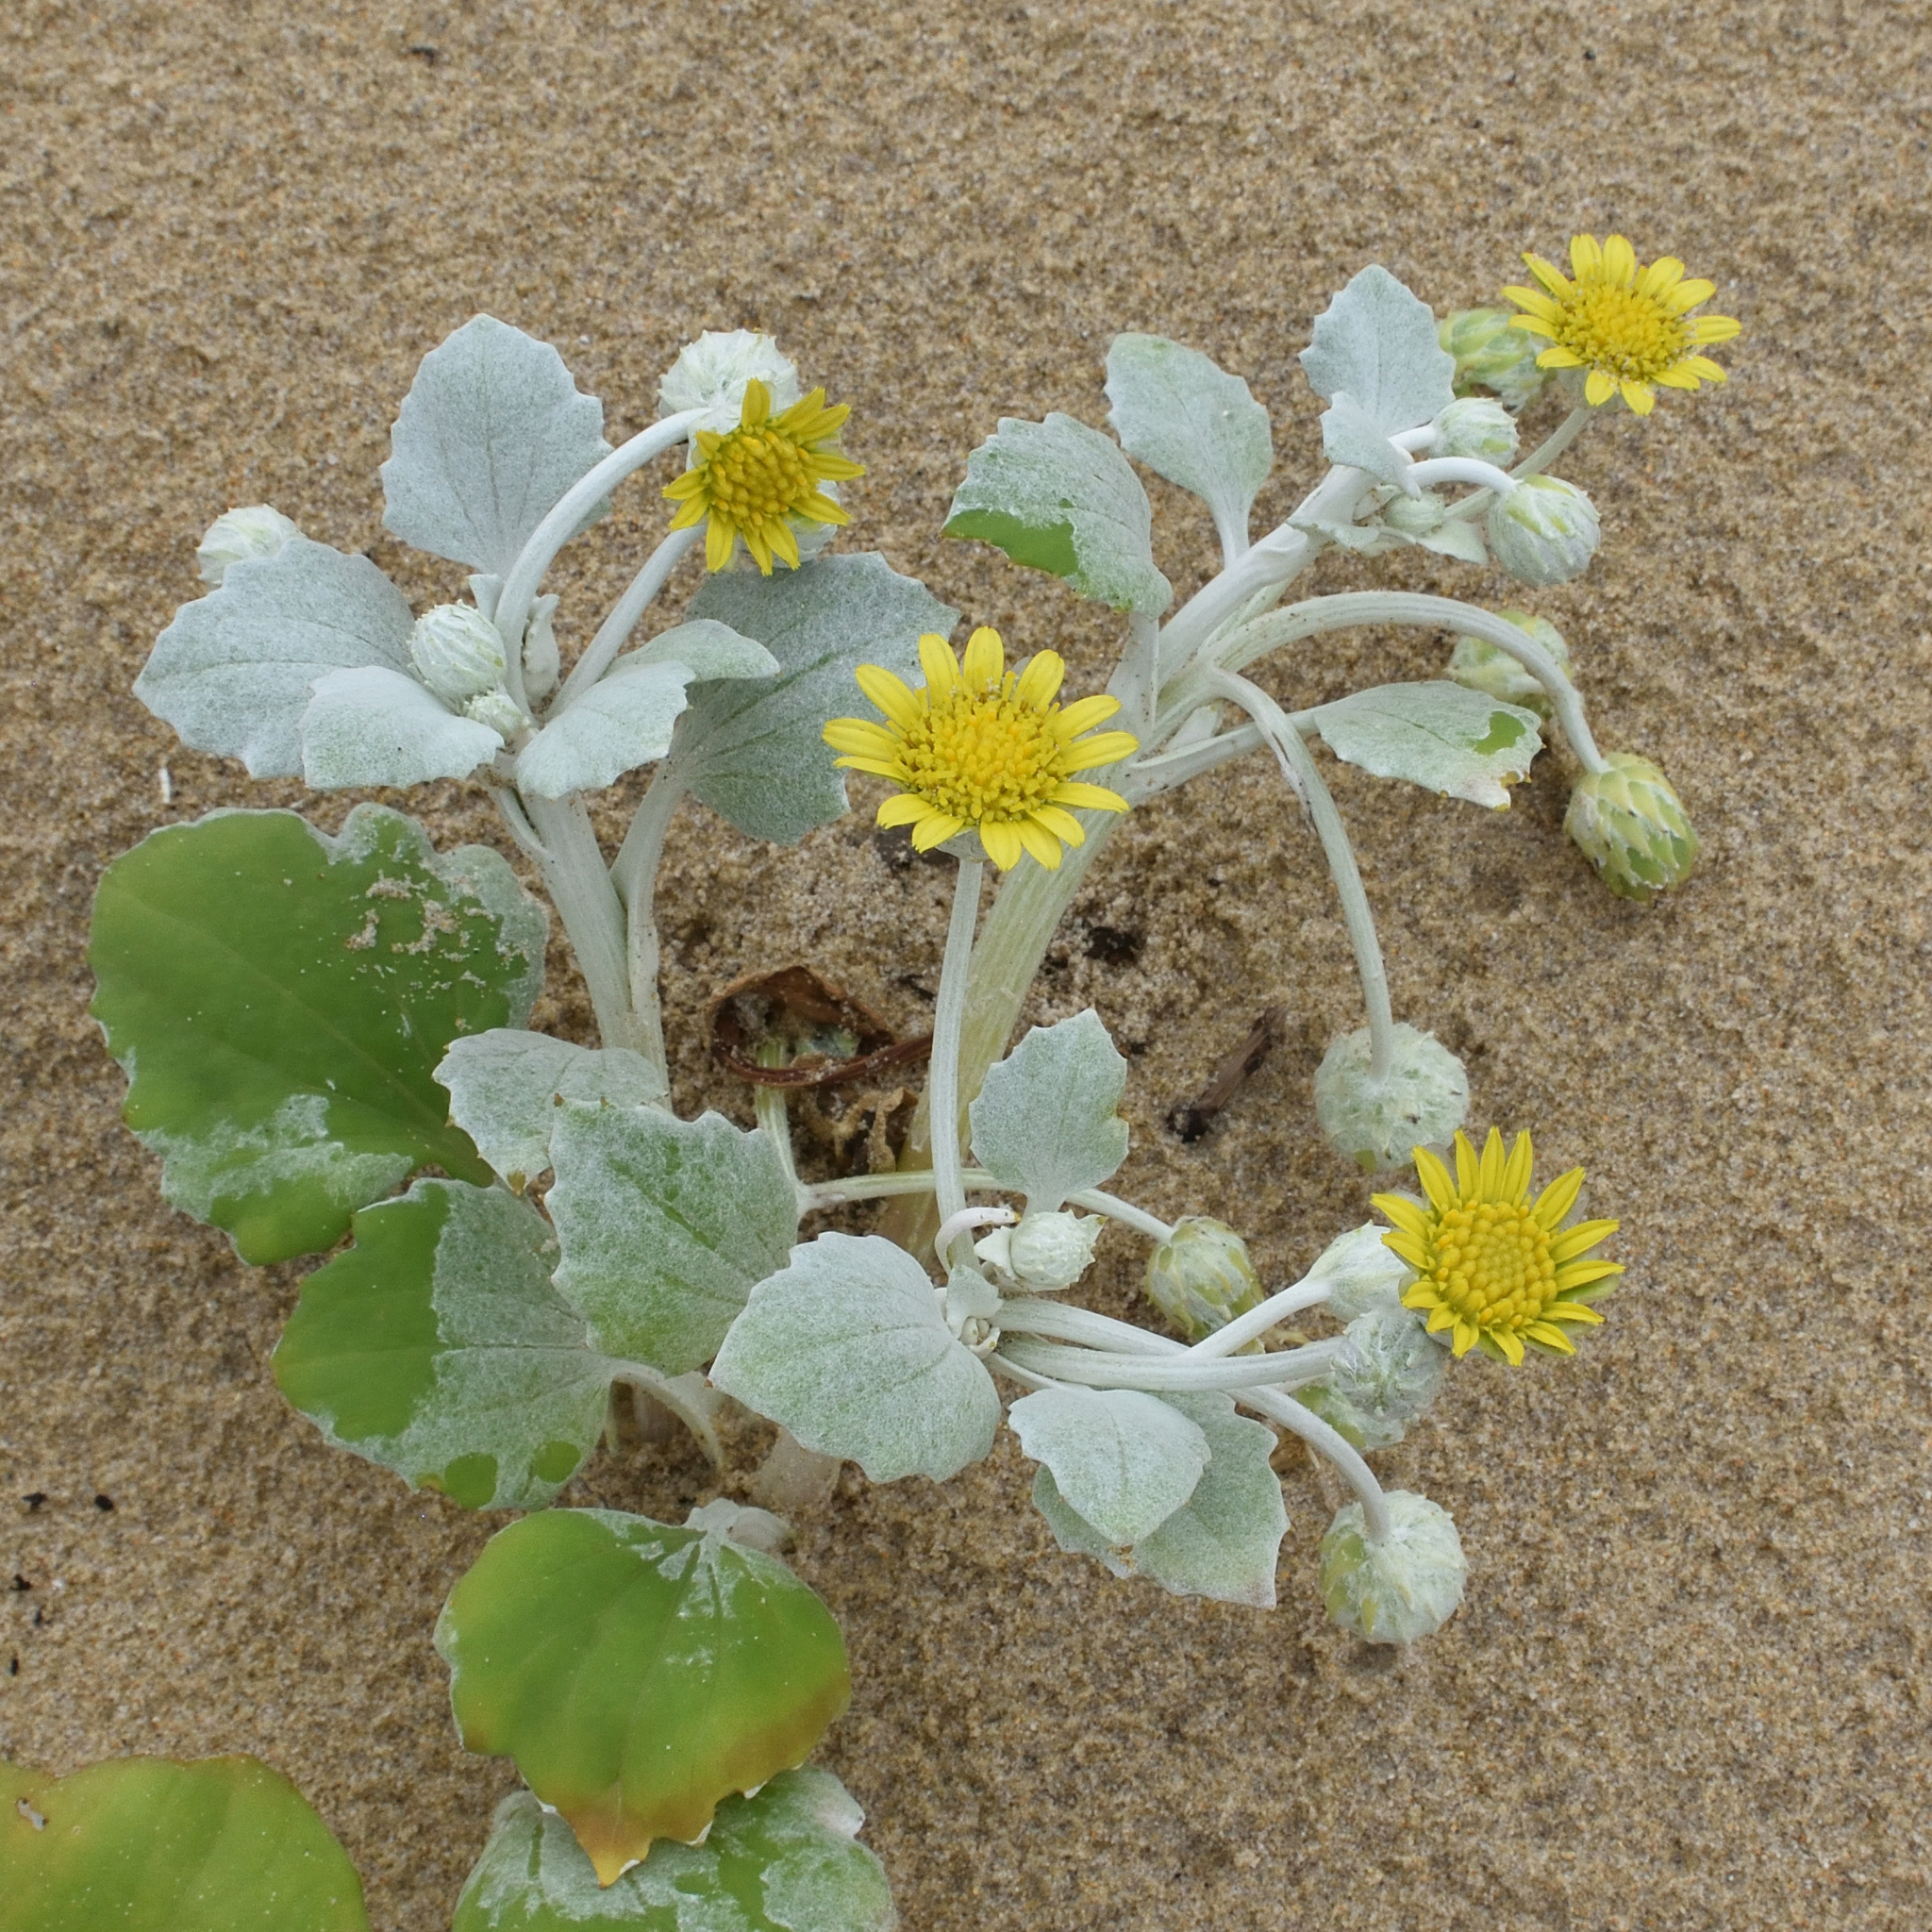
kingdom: Plantae
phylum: Tracheophyta
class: Magnoliopsida
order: Asterales
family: Asteraceae
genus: Arctotheca
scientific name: Arctotheca populifolia
